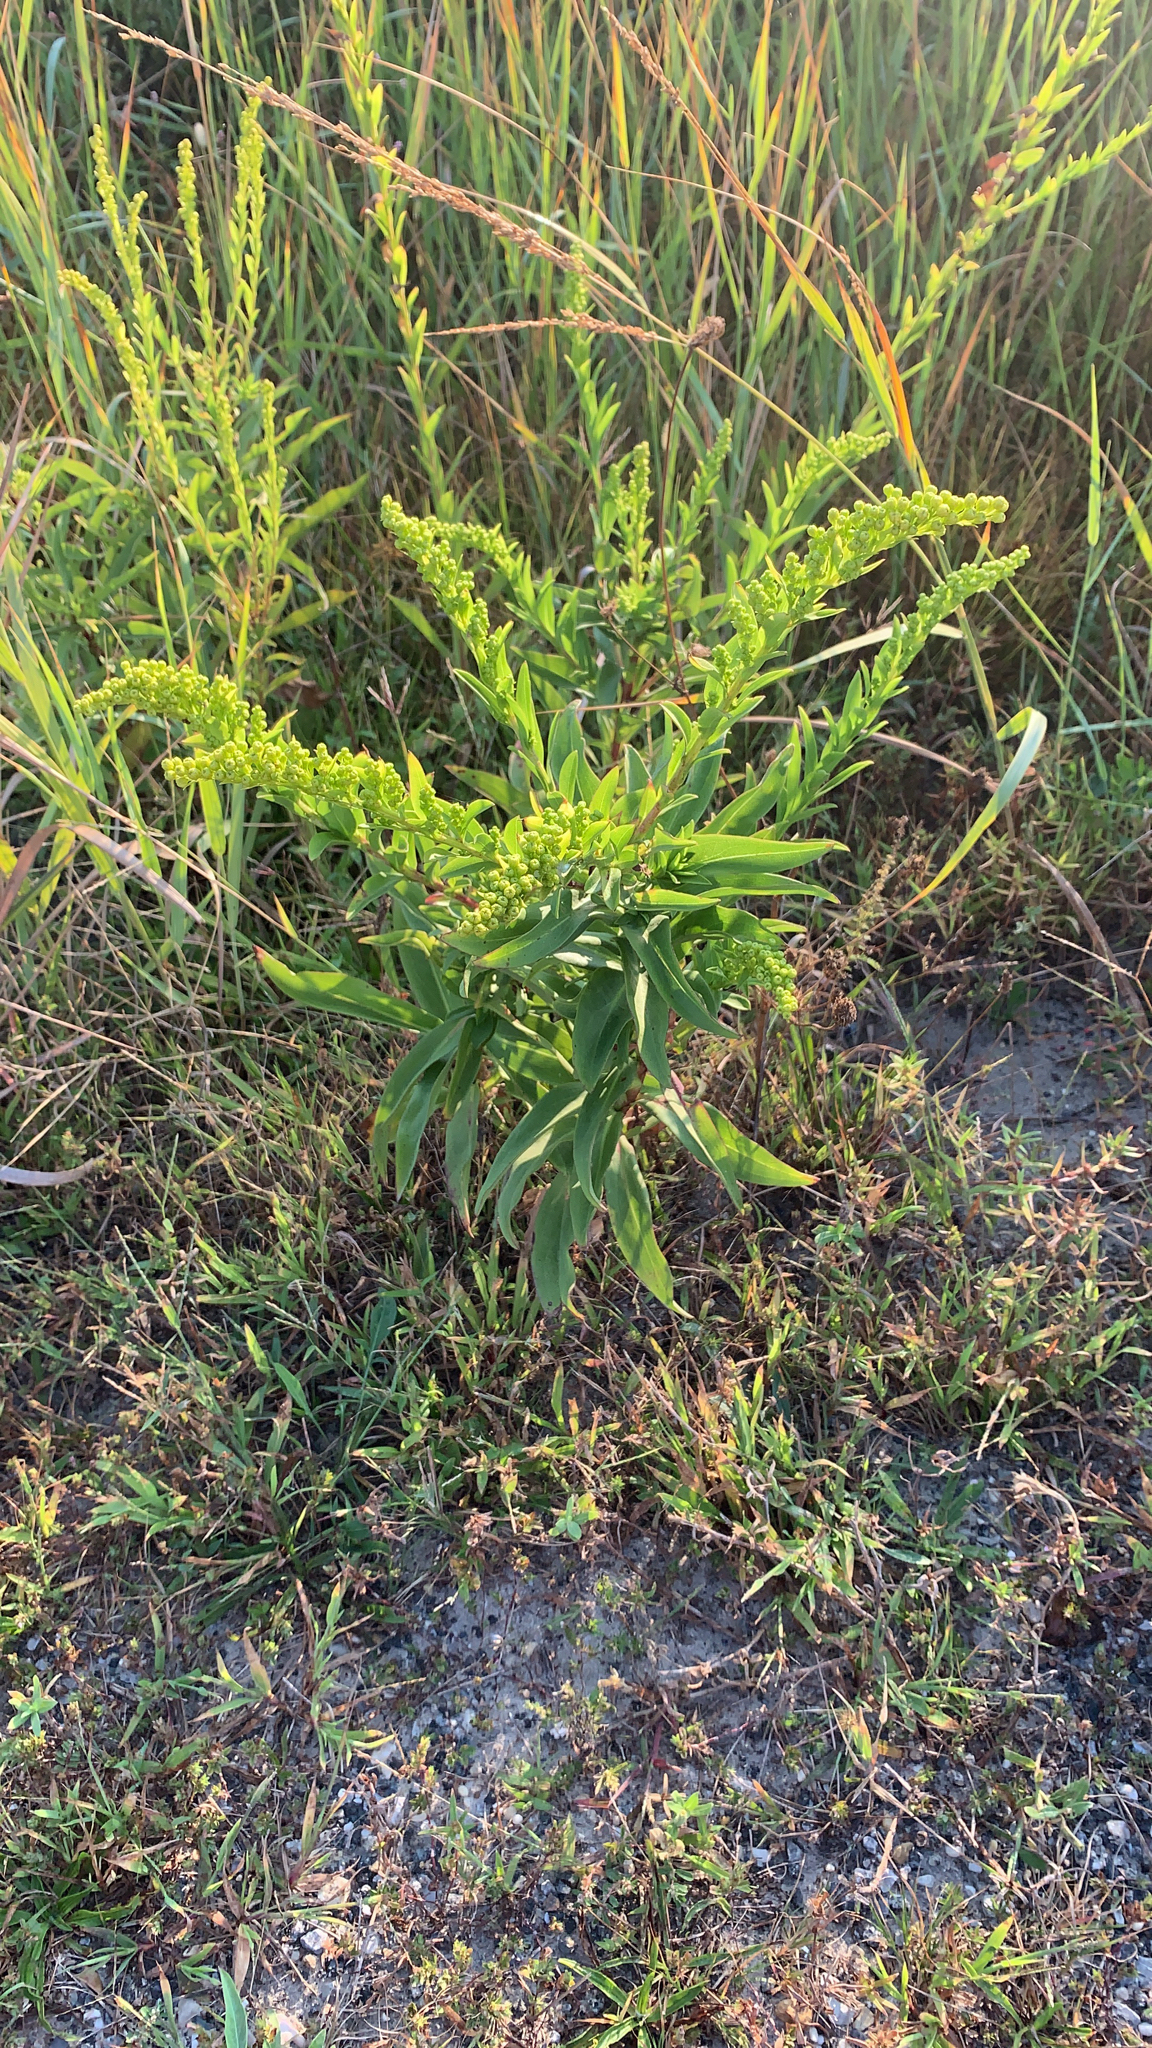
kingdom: Plantae
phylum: Tracheophyta
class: Magnoliopsida
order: Asterales
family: Asteraceae
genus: Solidago
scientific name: Solidago sempervirens
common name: Salt-marsh goldenrod
